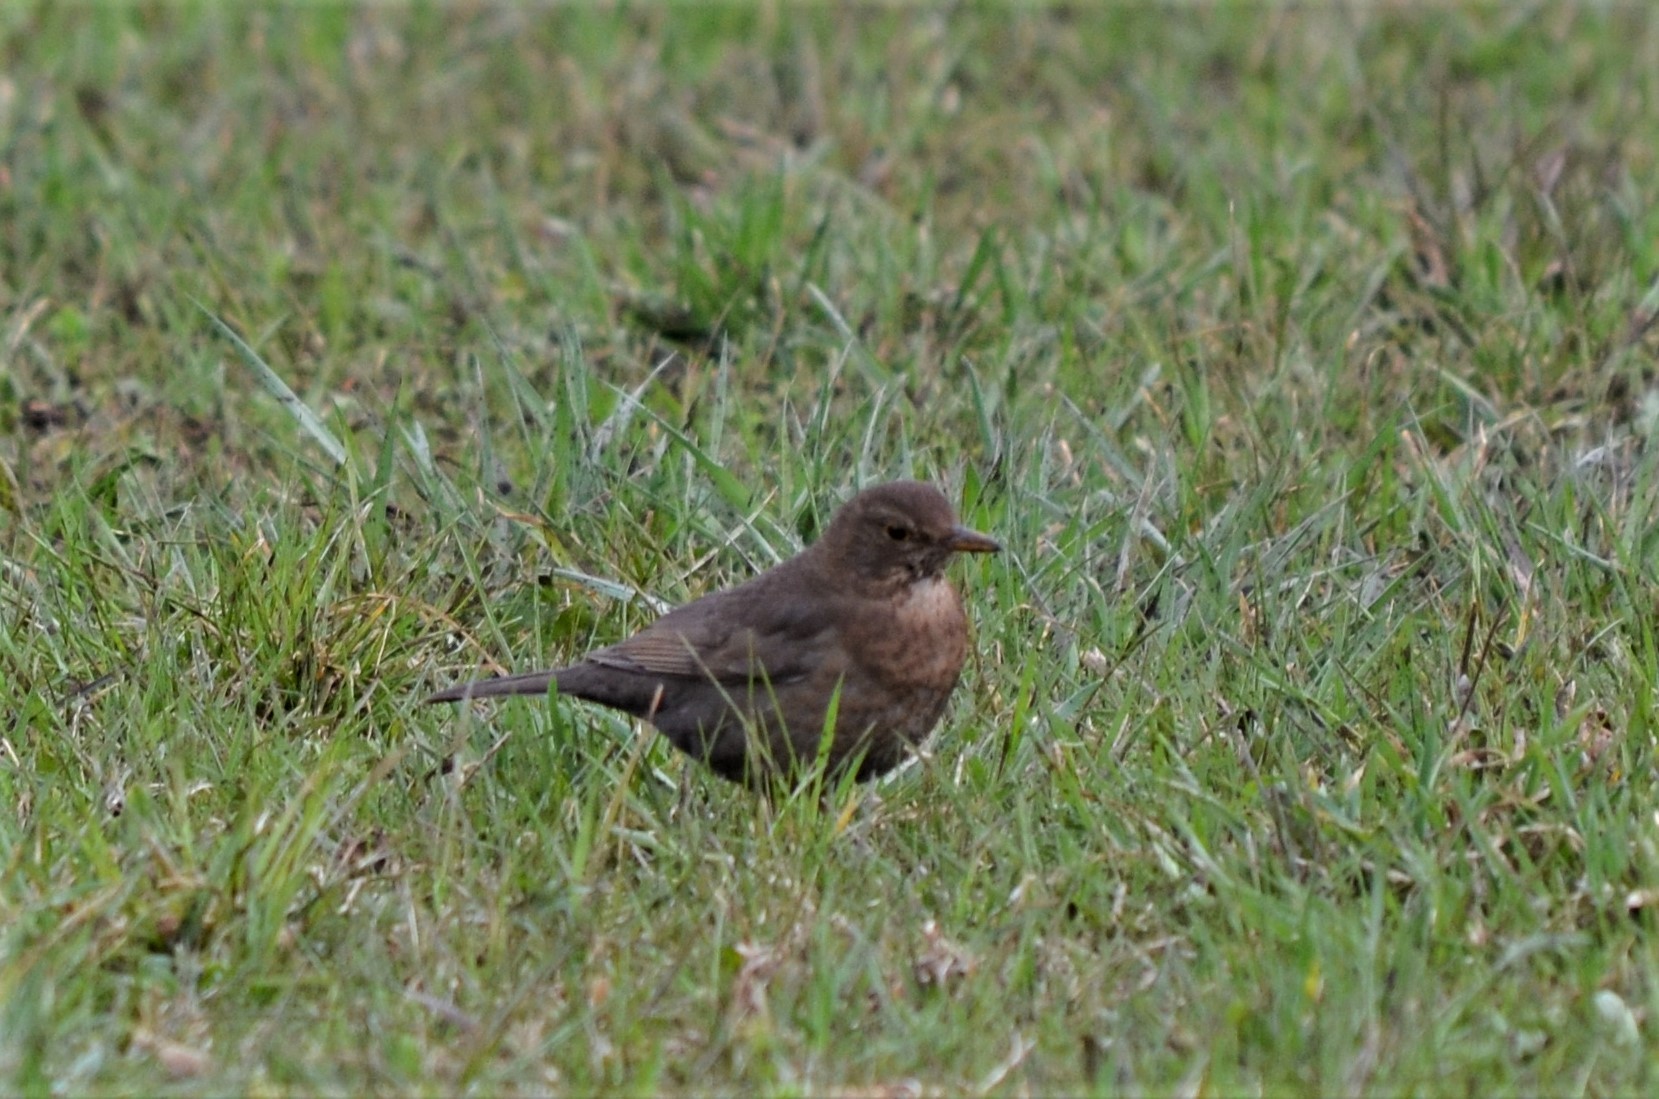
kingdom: Animalia
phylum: Chordata
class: Aves
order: Passeriformes
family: Turdidae
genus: Turdus
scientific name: Turdus merula
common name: Common blackbird
